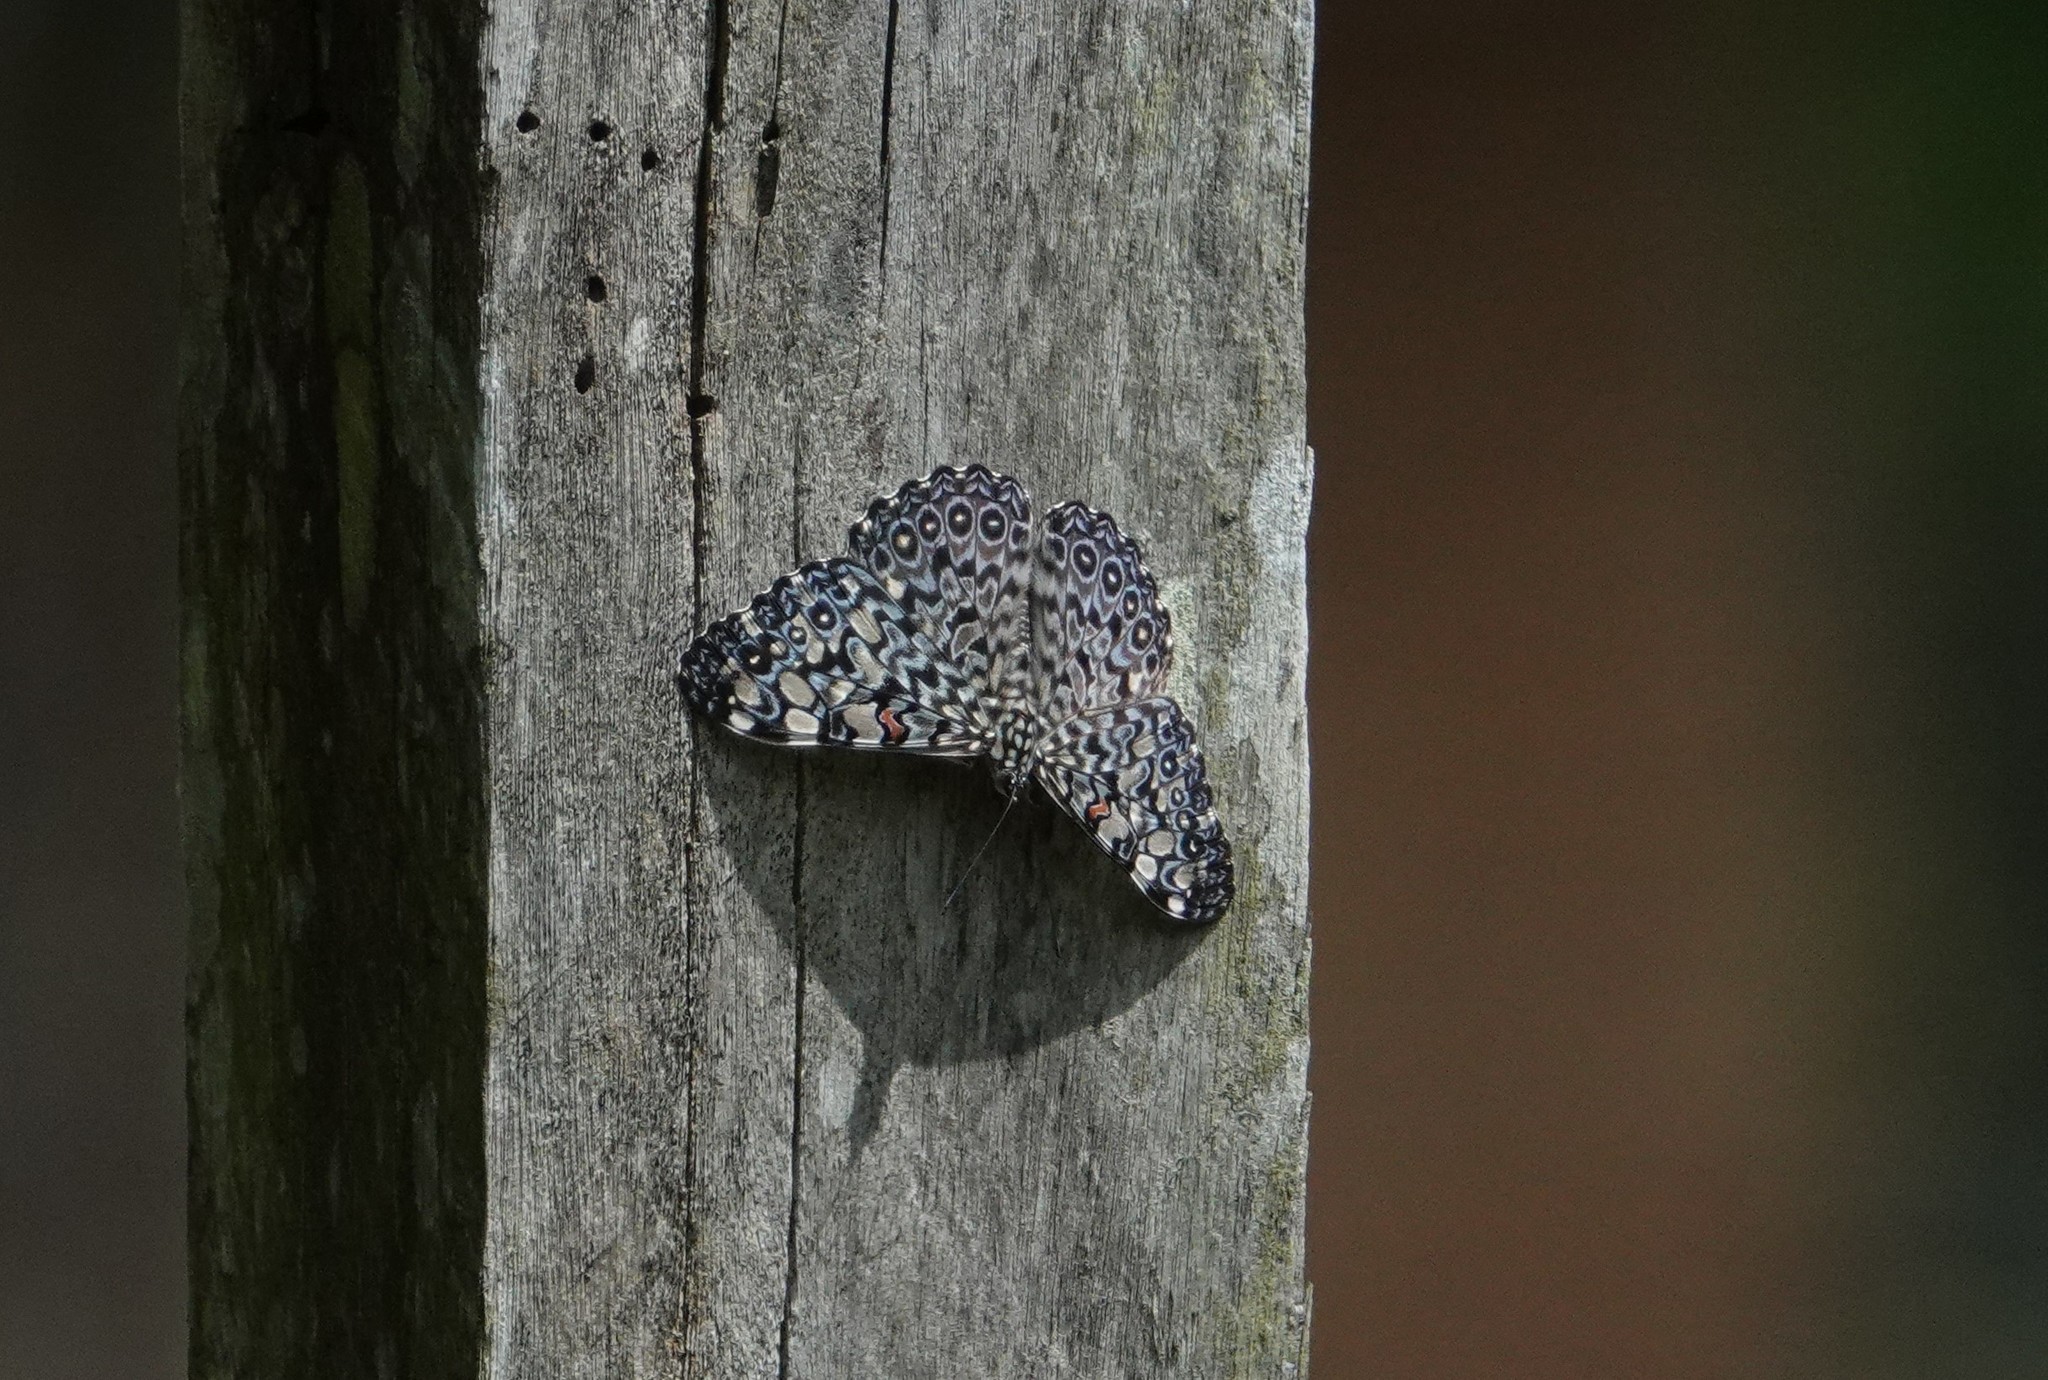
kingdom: Animalia
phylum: Arthropoda
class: Insecta
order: Lepidoptera
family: Nymphalidae
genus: Hamadryas
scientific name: Hamadryas feronia
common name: Variable cracker
